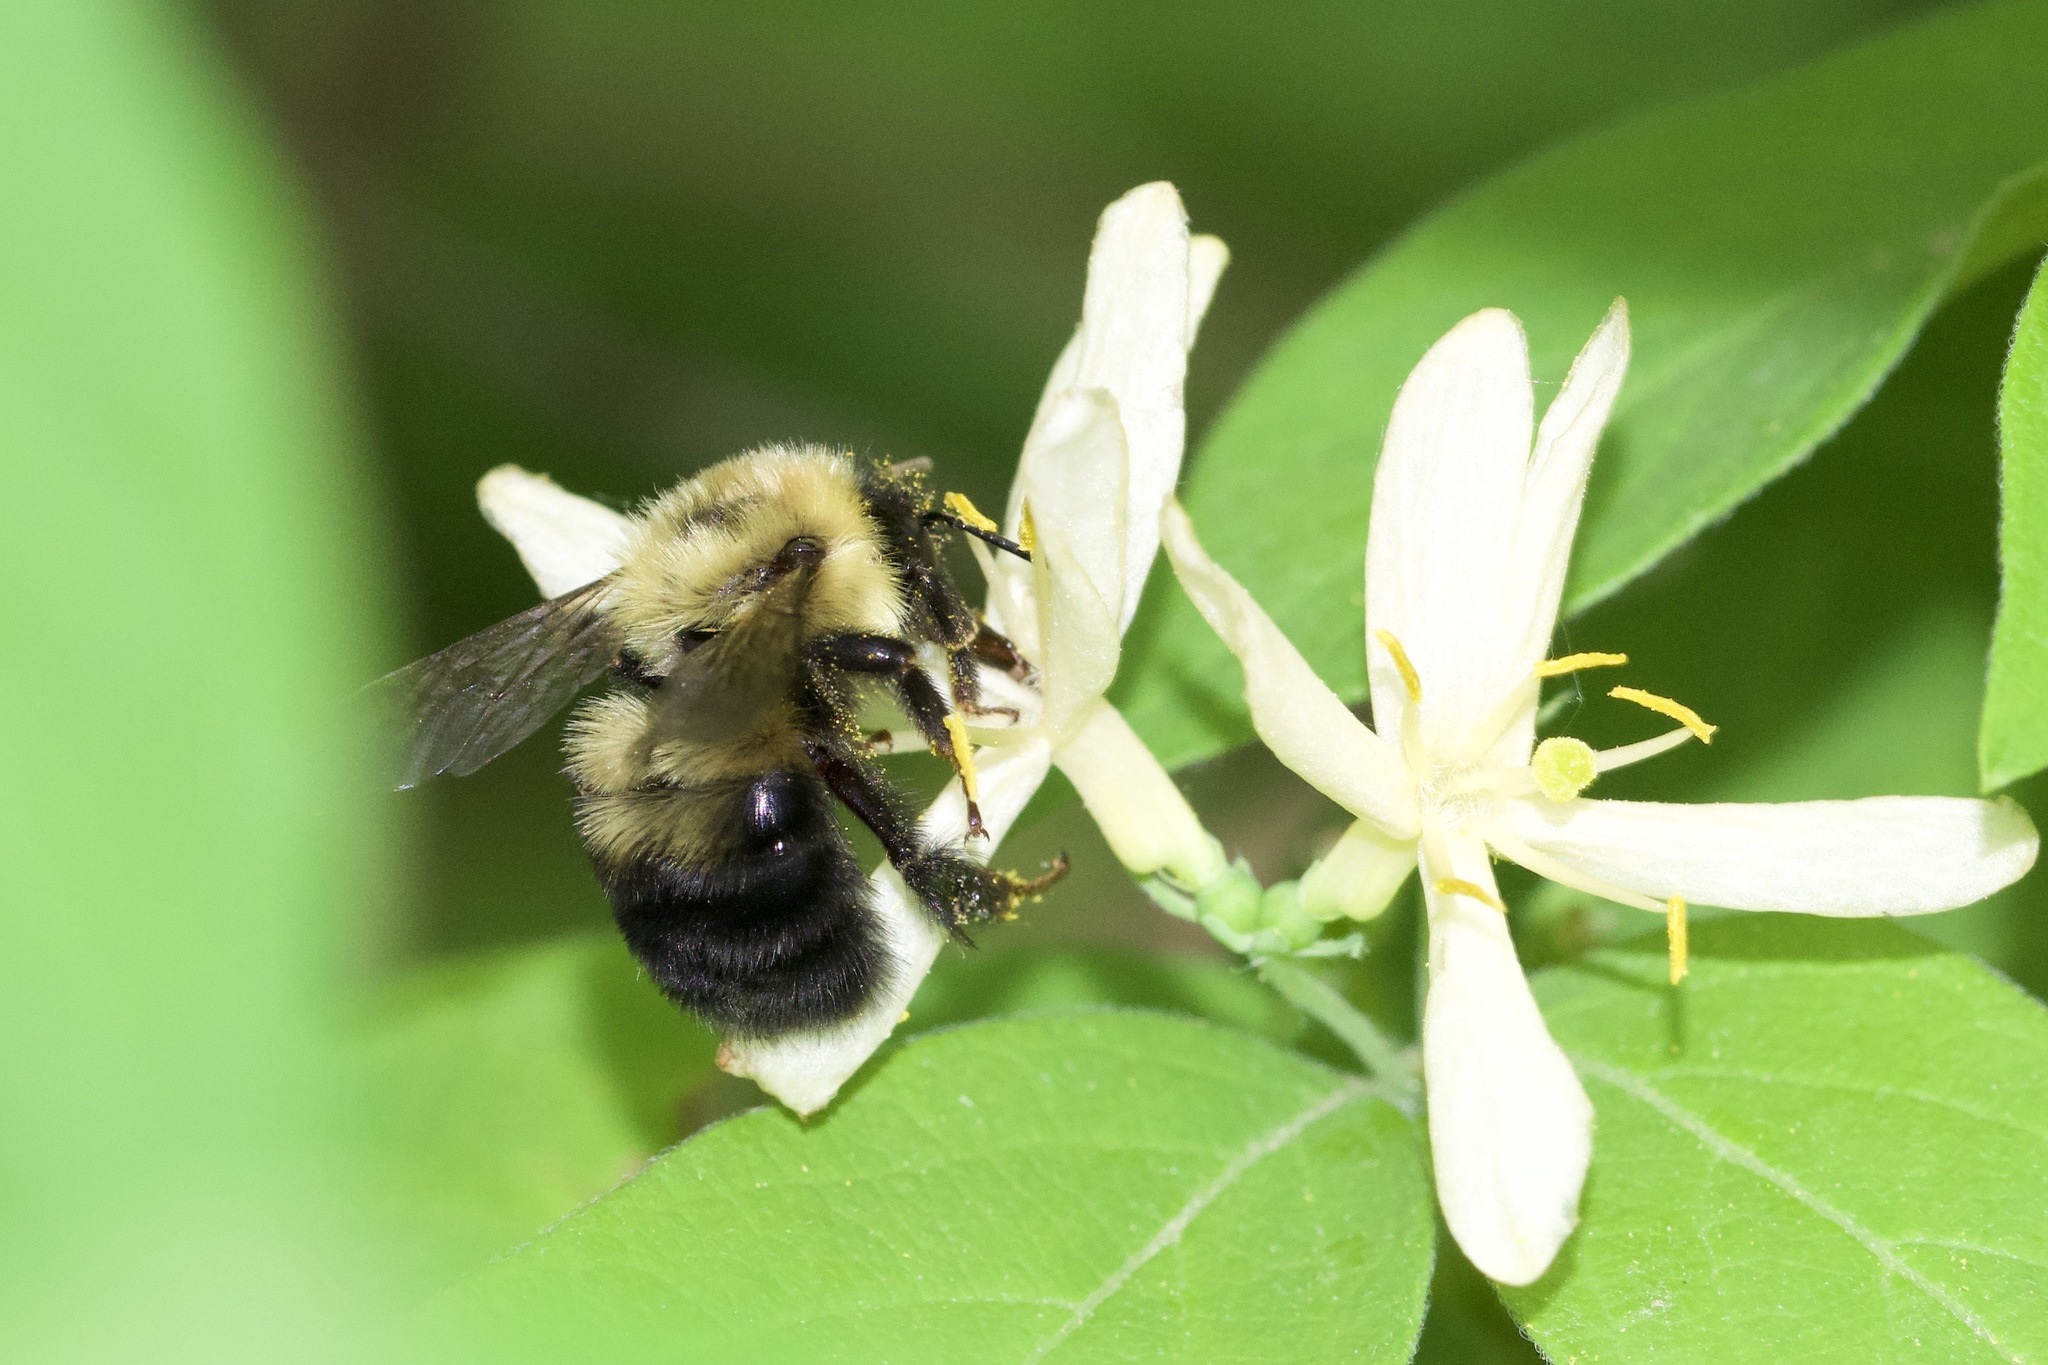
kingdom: Animalia
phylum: Arthropoda
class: Insecta
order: Hymenoptera
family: Apidae
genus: Bombus
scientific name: Bombus bimaculatus
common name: Two-spotted bumble bee
